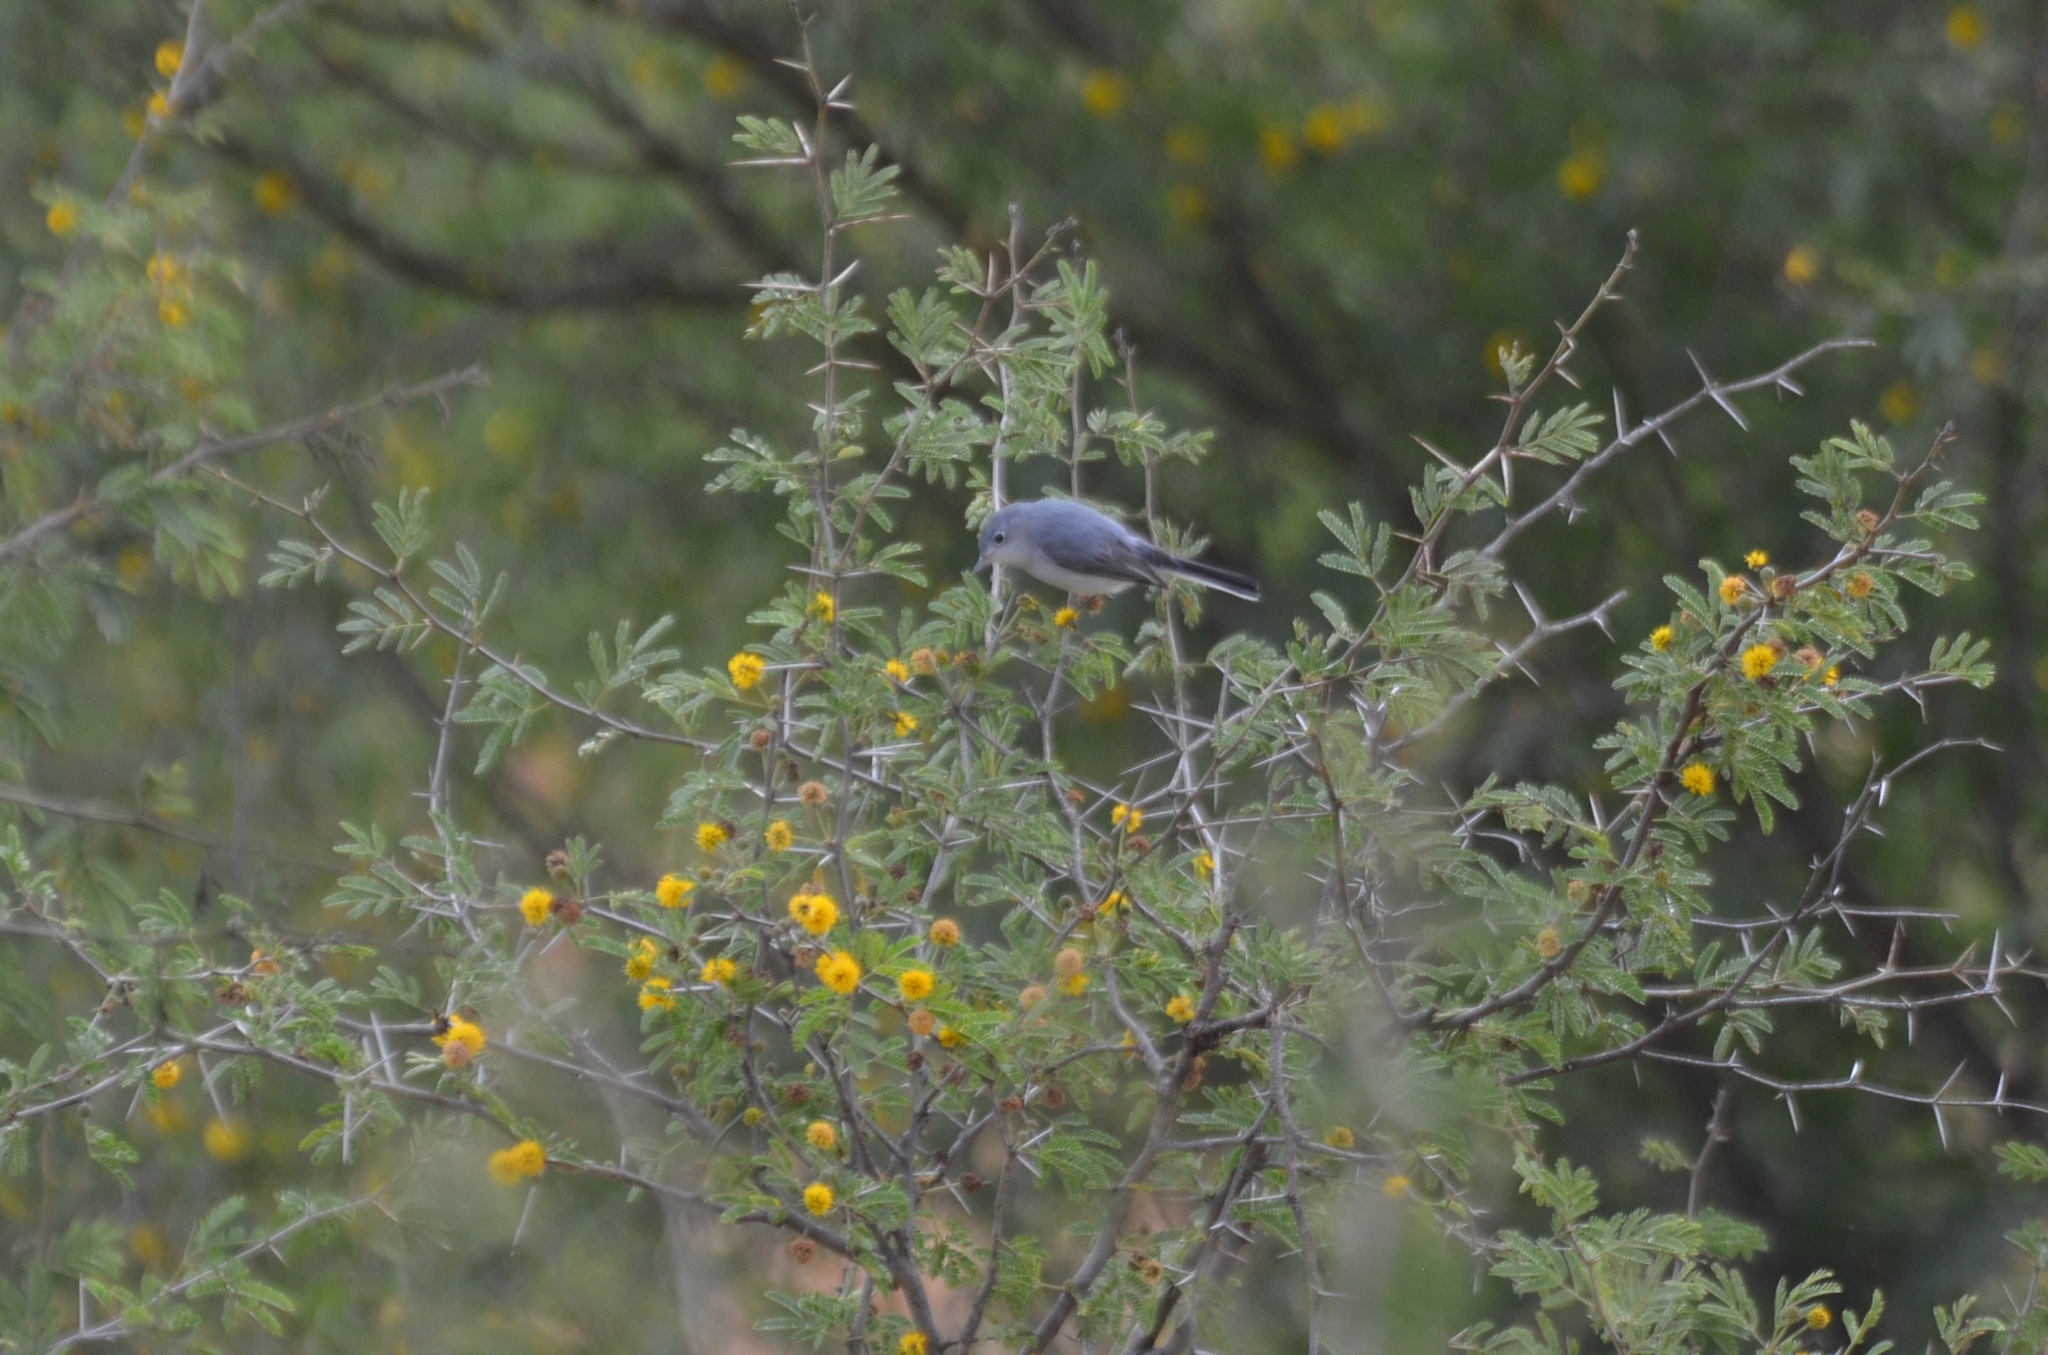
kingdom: Animalia
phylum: Chordata
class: Aves
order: Passeriformes
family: Polioptilidae
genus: Polioptila
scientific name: Polioptila caerulea
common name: Blue-gray gnatcatcher
